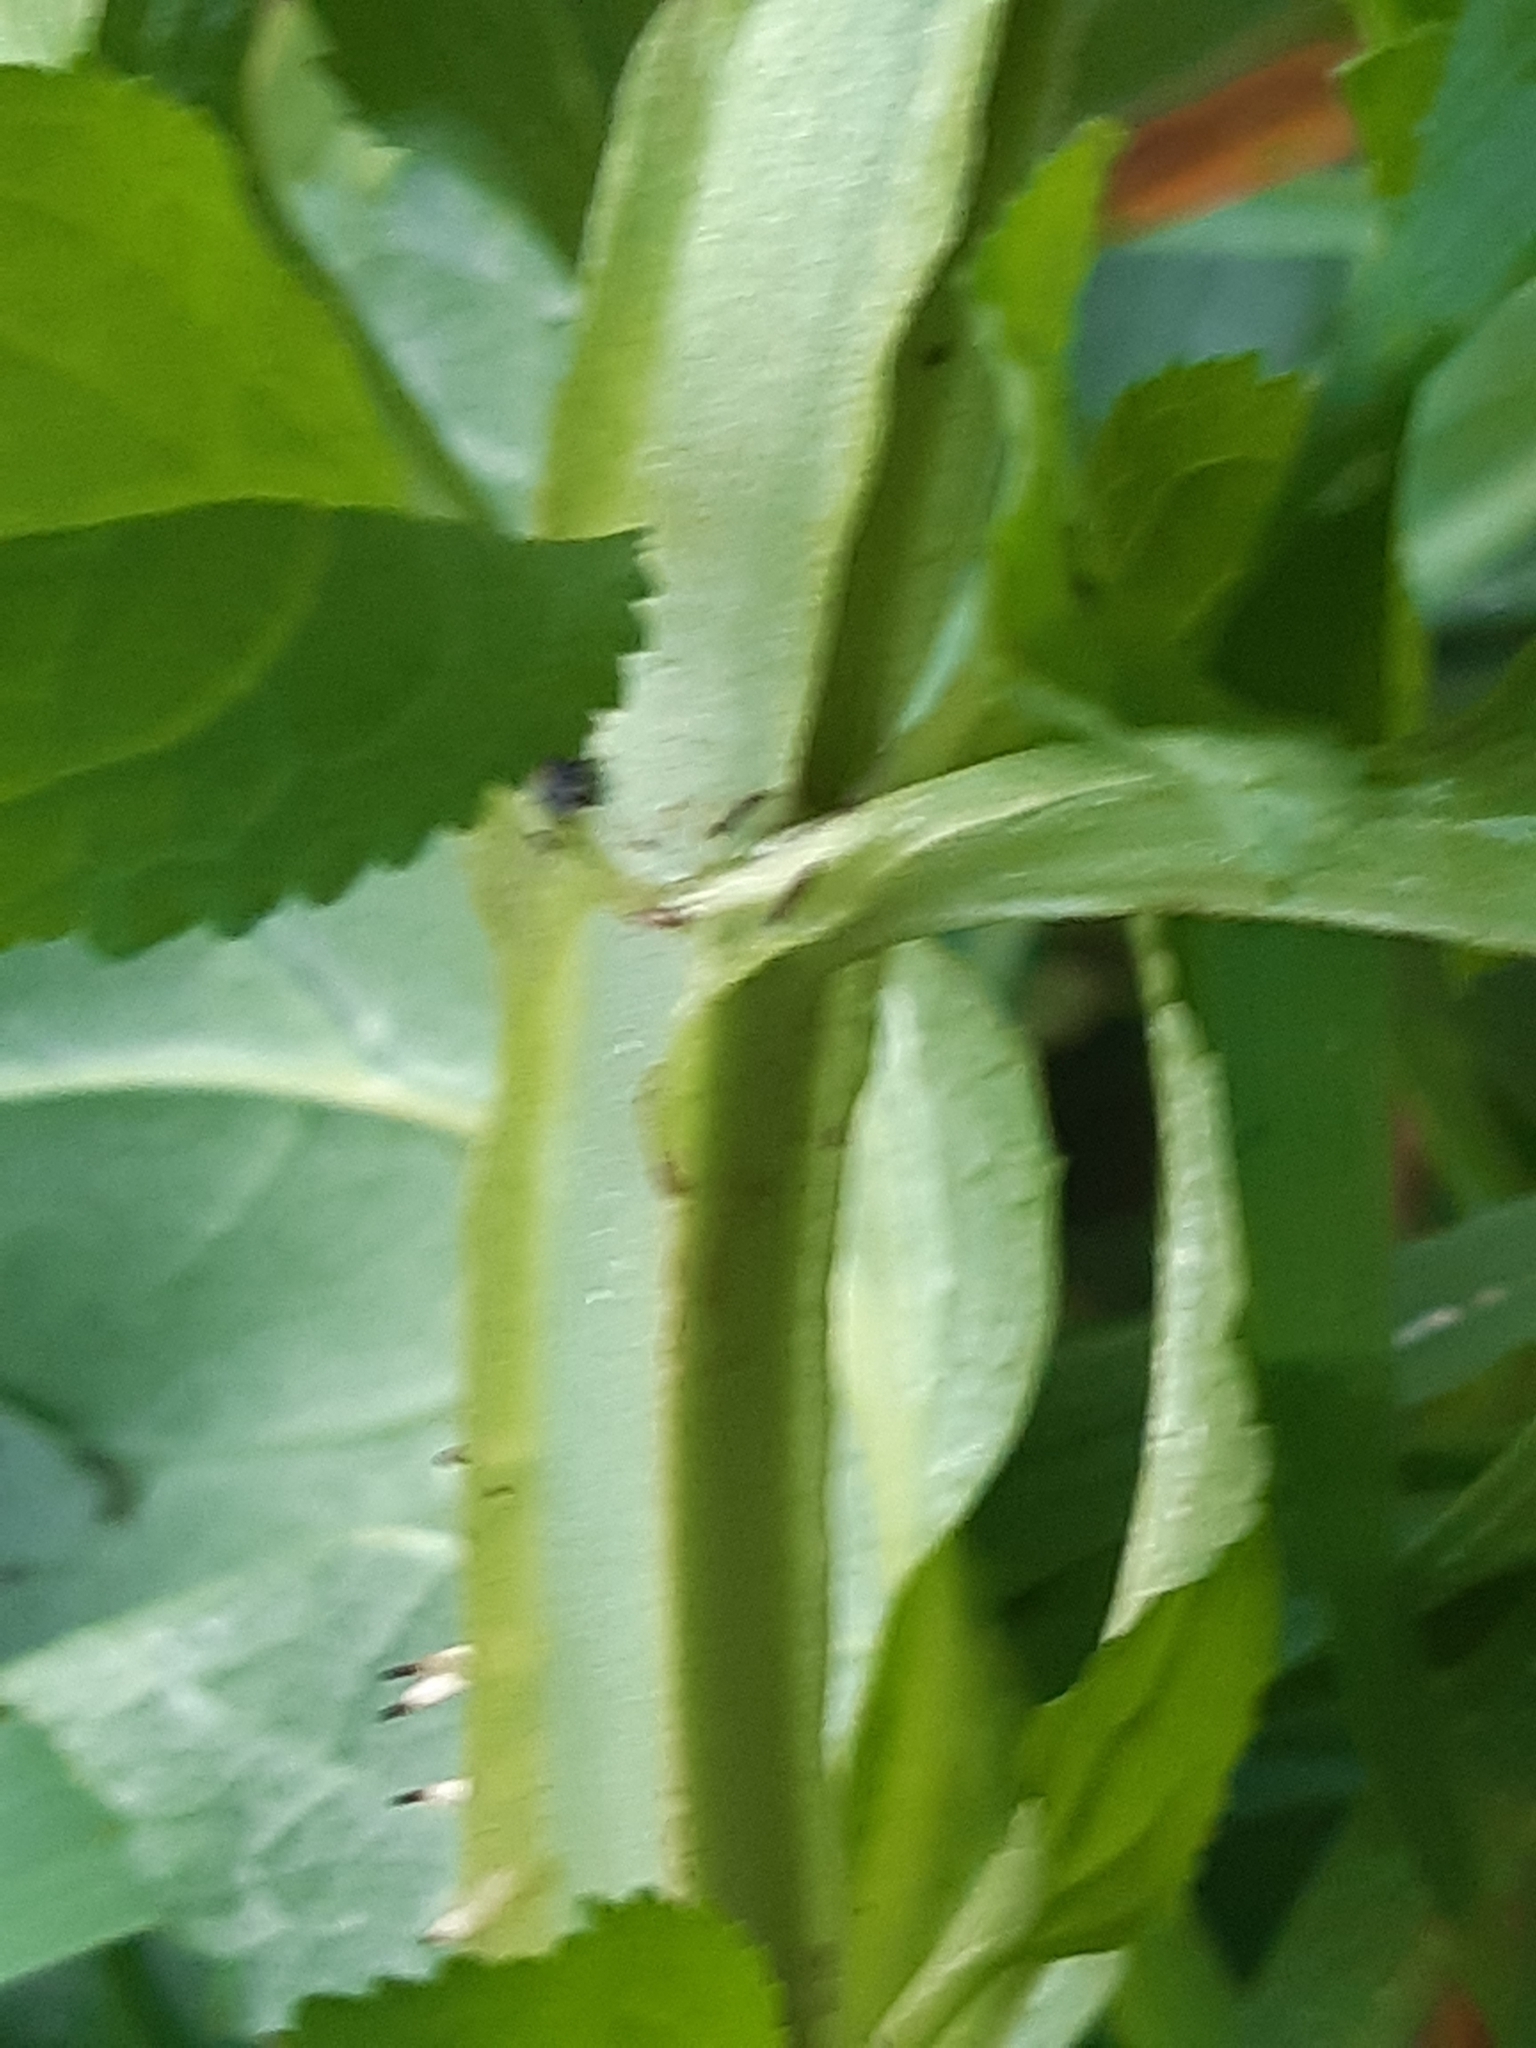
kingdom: Plantae
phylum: Tracheophyta
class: Magnoliopsida
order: Lamiales
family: Scrophulariaceae
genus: Scrophularia
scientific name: Scrophularia umbrosa
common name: Green figwort
